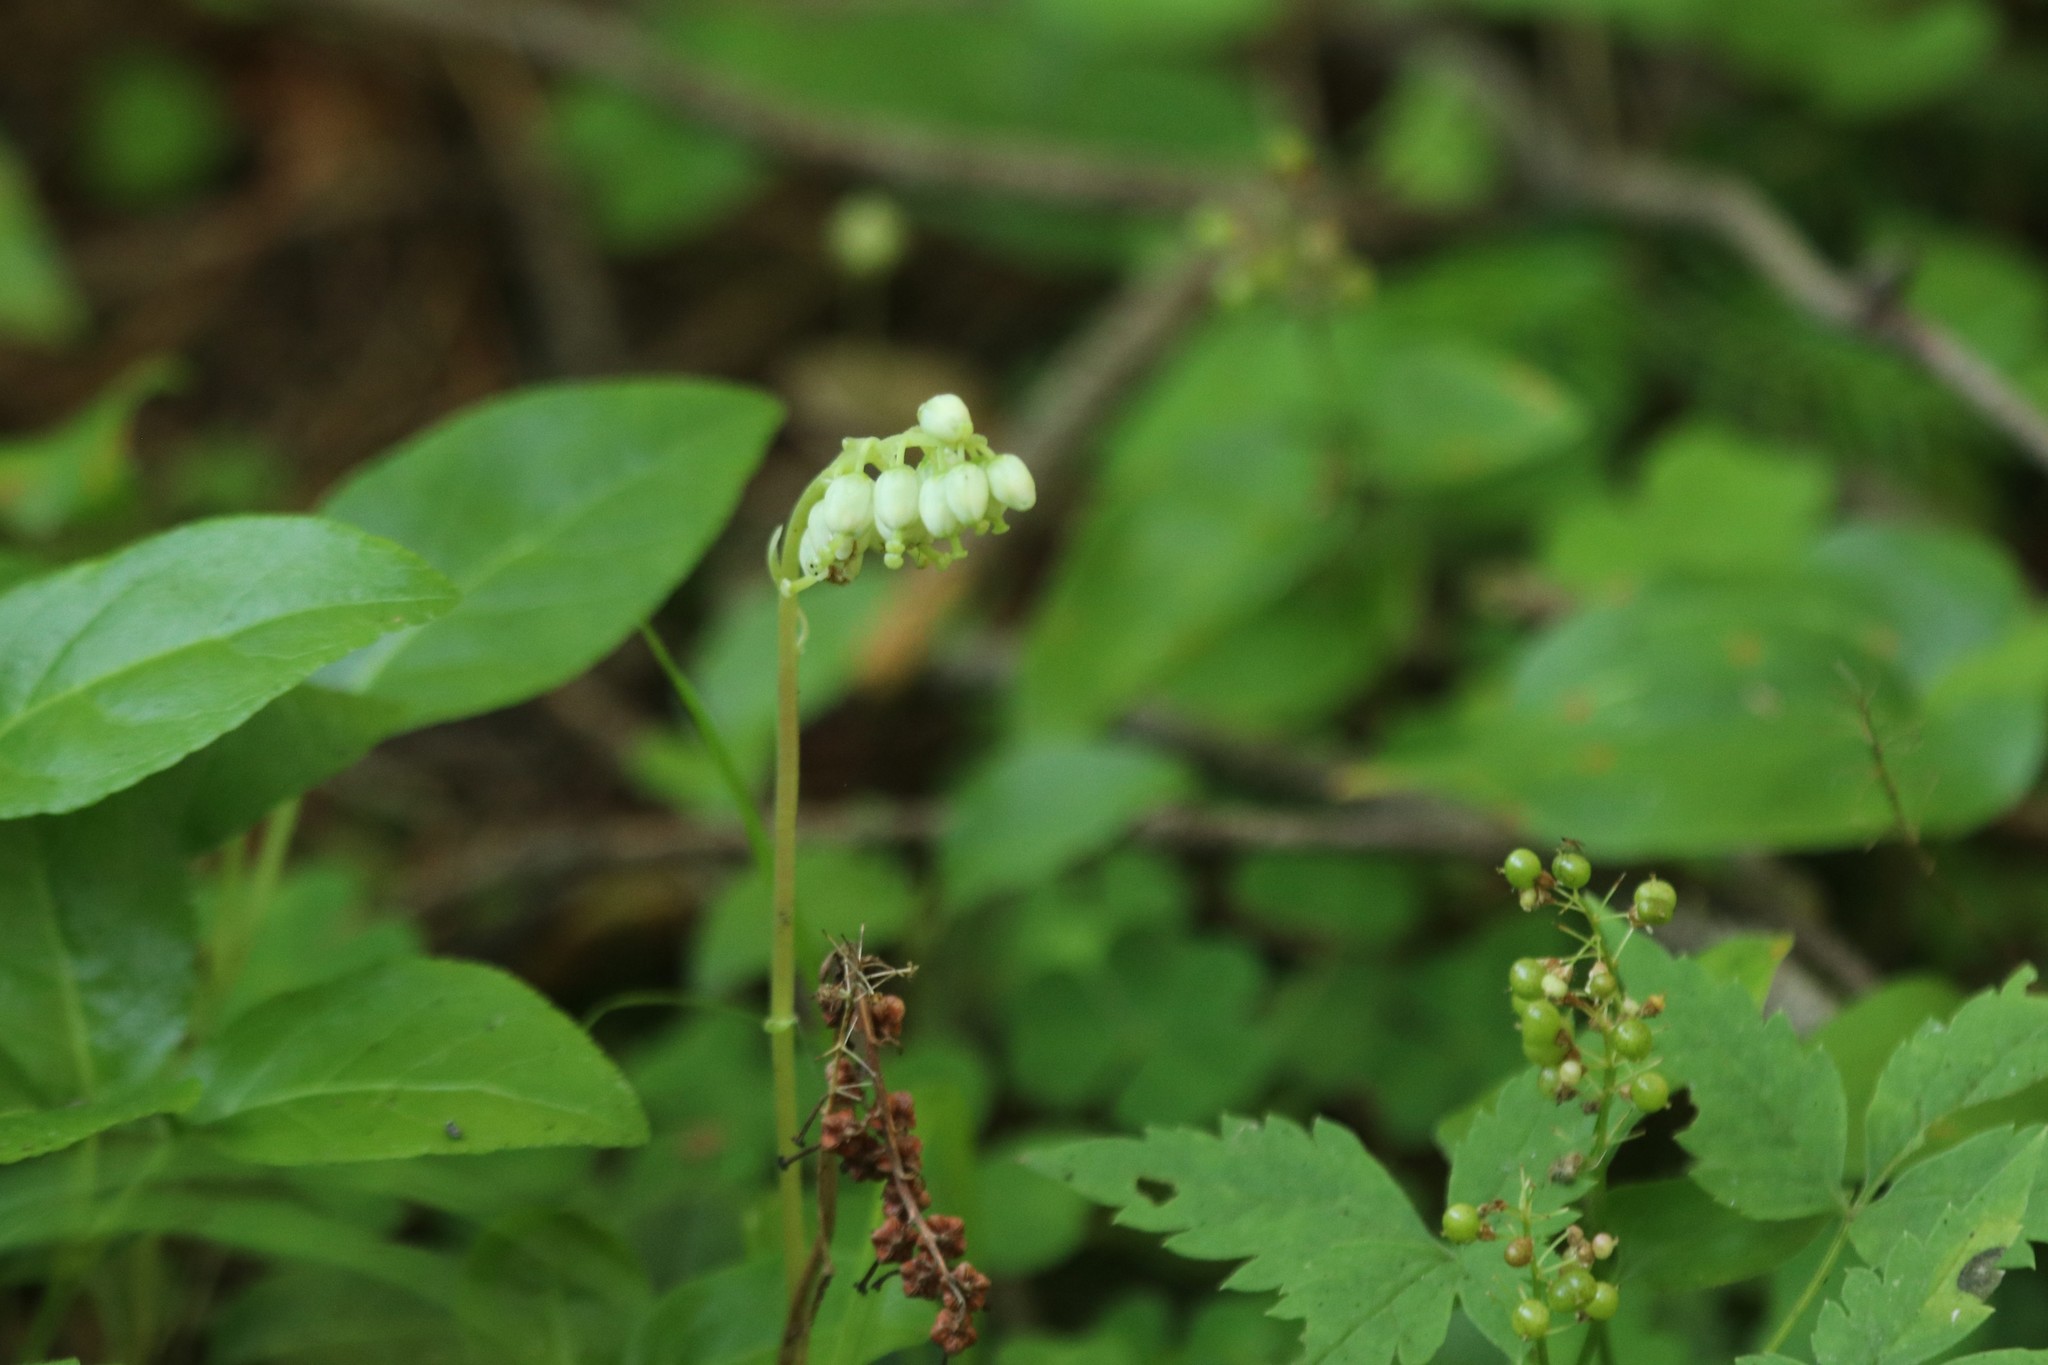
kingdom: Plantae
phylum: Tracheophyta
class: Magnoliopsida
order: Ericales
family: Ericaceae
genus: Orthilia
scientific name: Orthilia secunda
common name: One-sided orthilia
